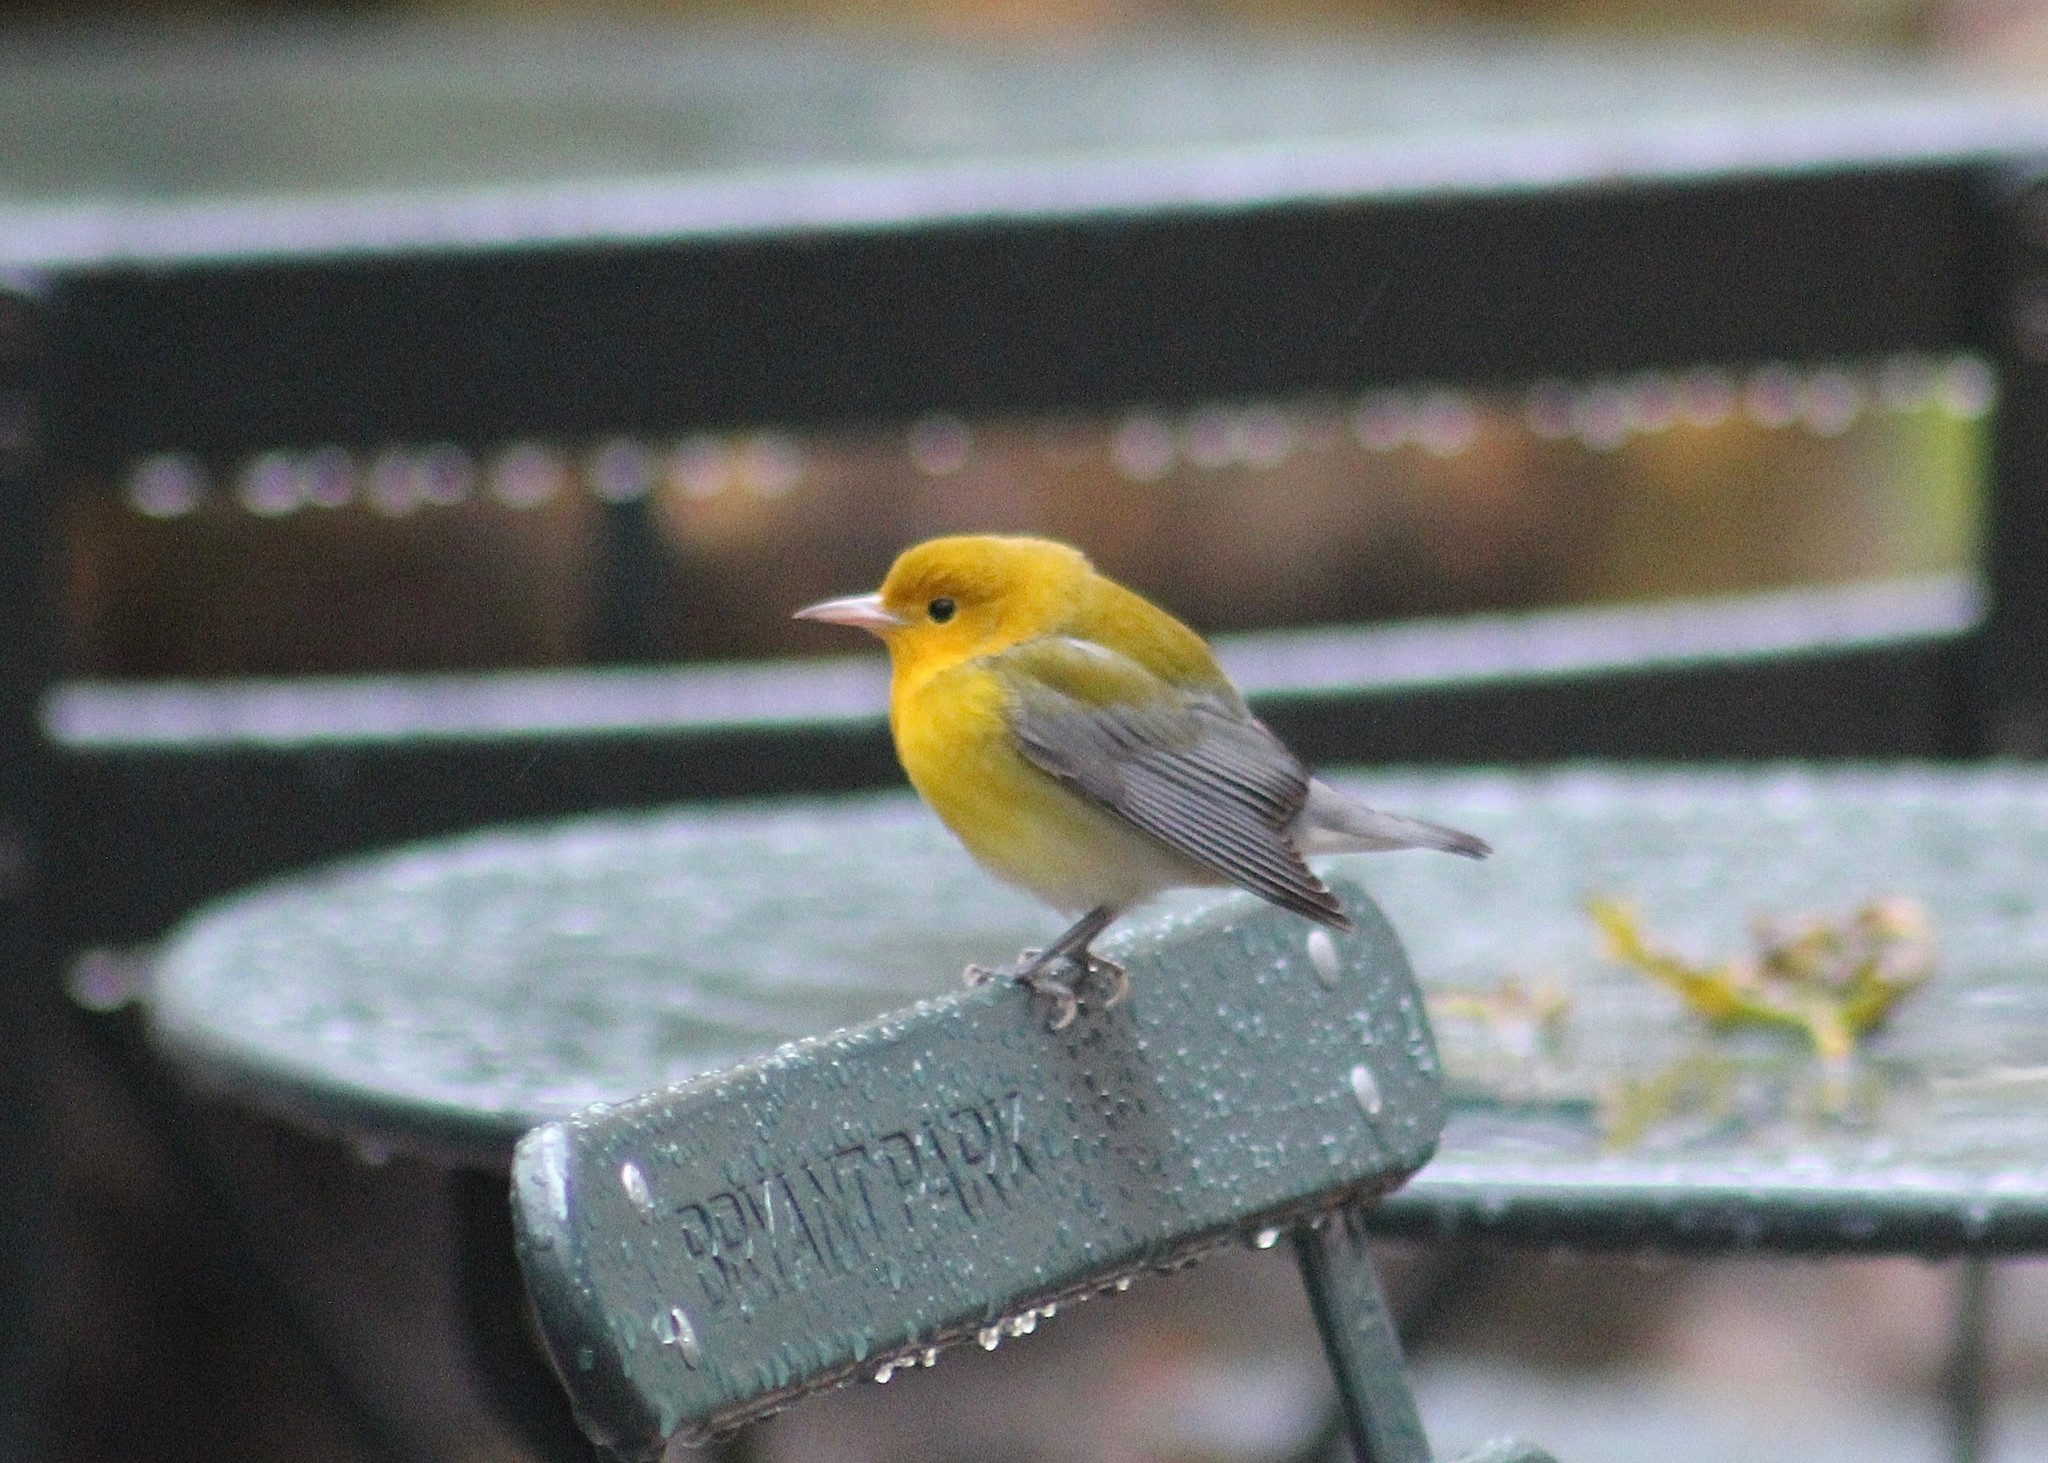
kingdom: Animalia
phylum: Chordata
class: Aves
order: Passeriformes
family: Parulidae
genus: Protonotaria
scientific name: Protonotaria citrea
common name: Prothonotary warbler
